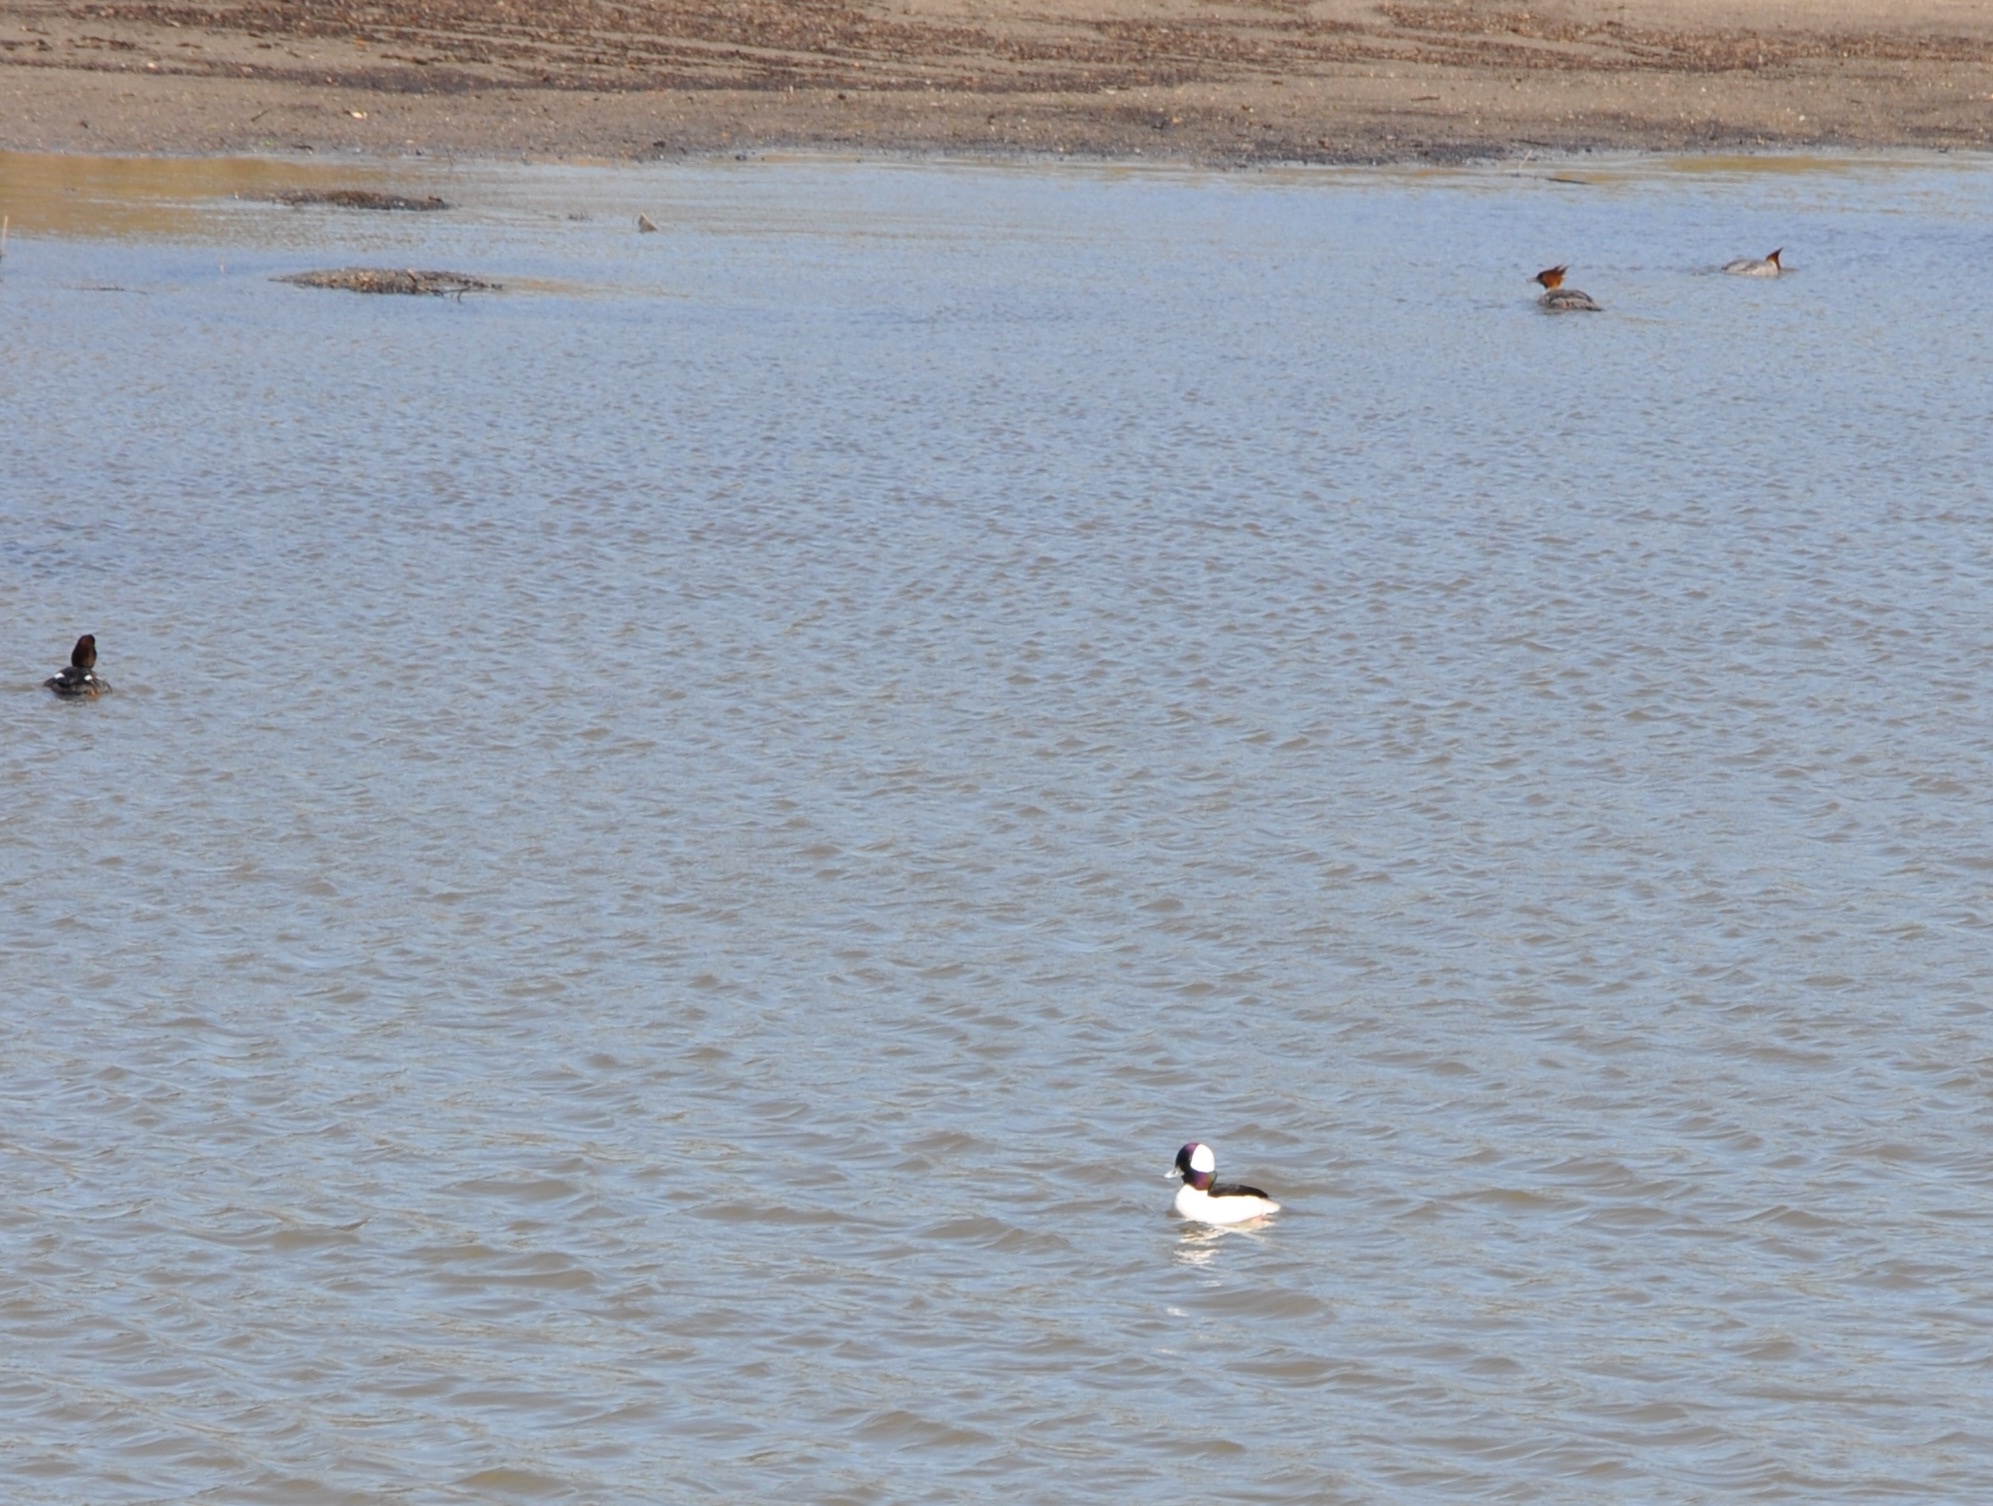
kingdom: Animalia
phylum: Chordata
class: Aves
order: Anseriformes
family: Anatidae
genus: Bucephala
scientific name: Bucephala albeola
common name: Bufflehead
